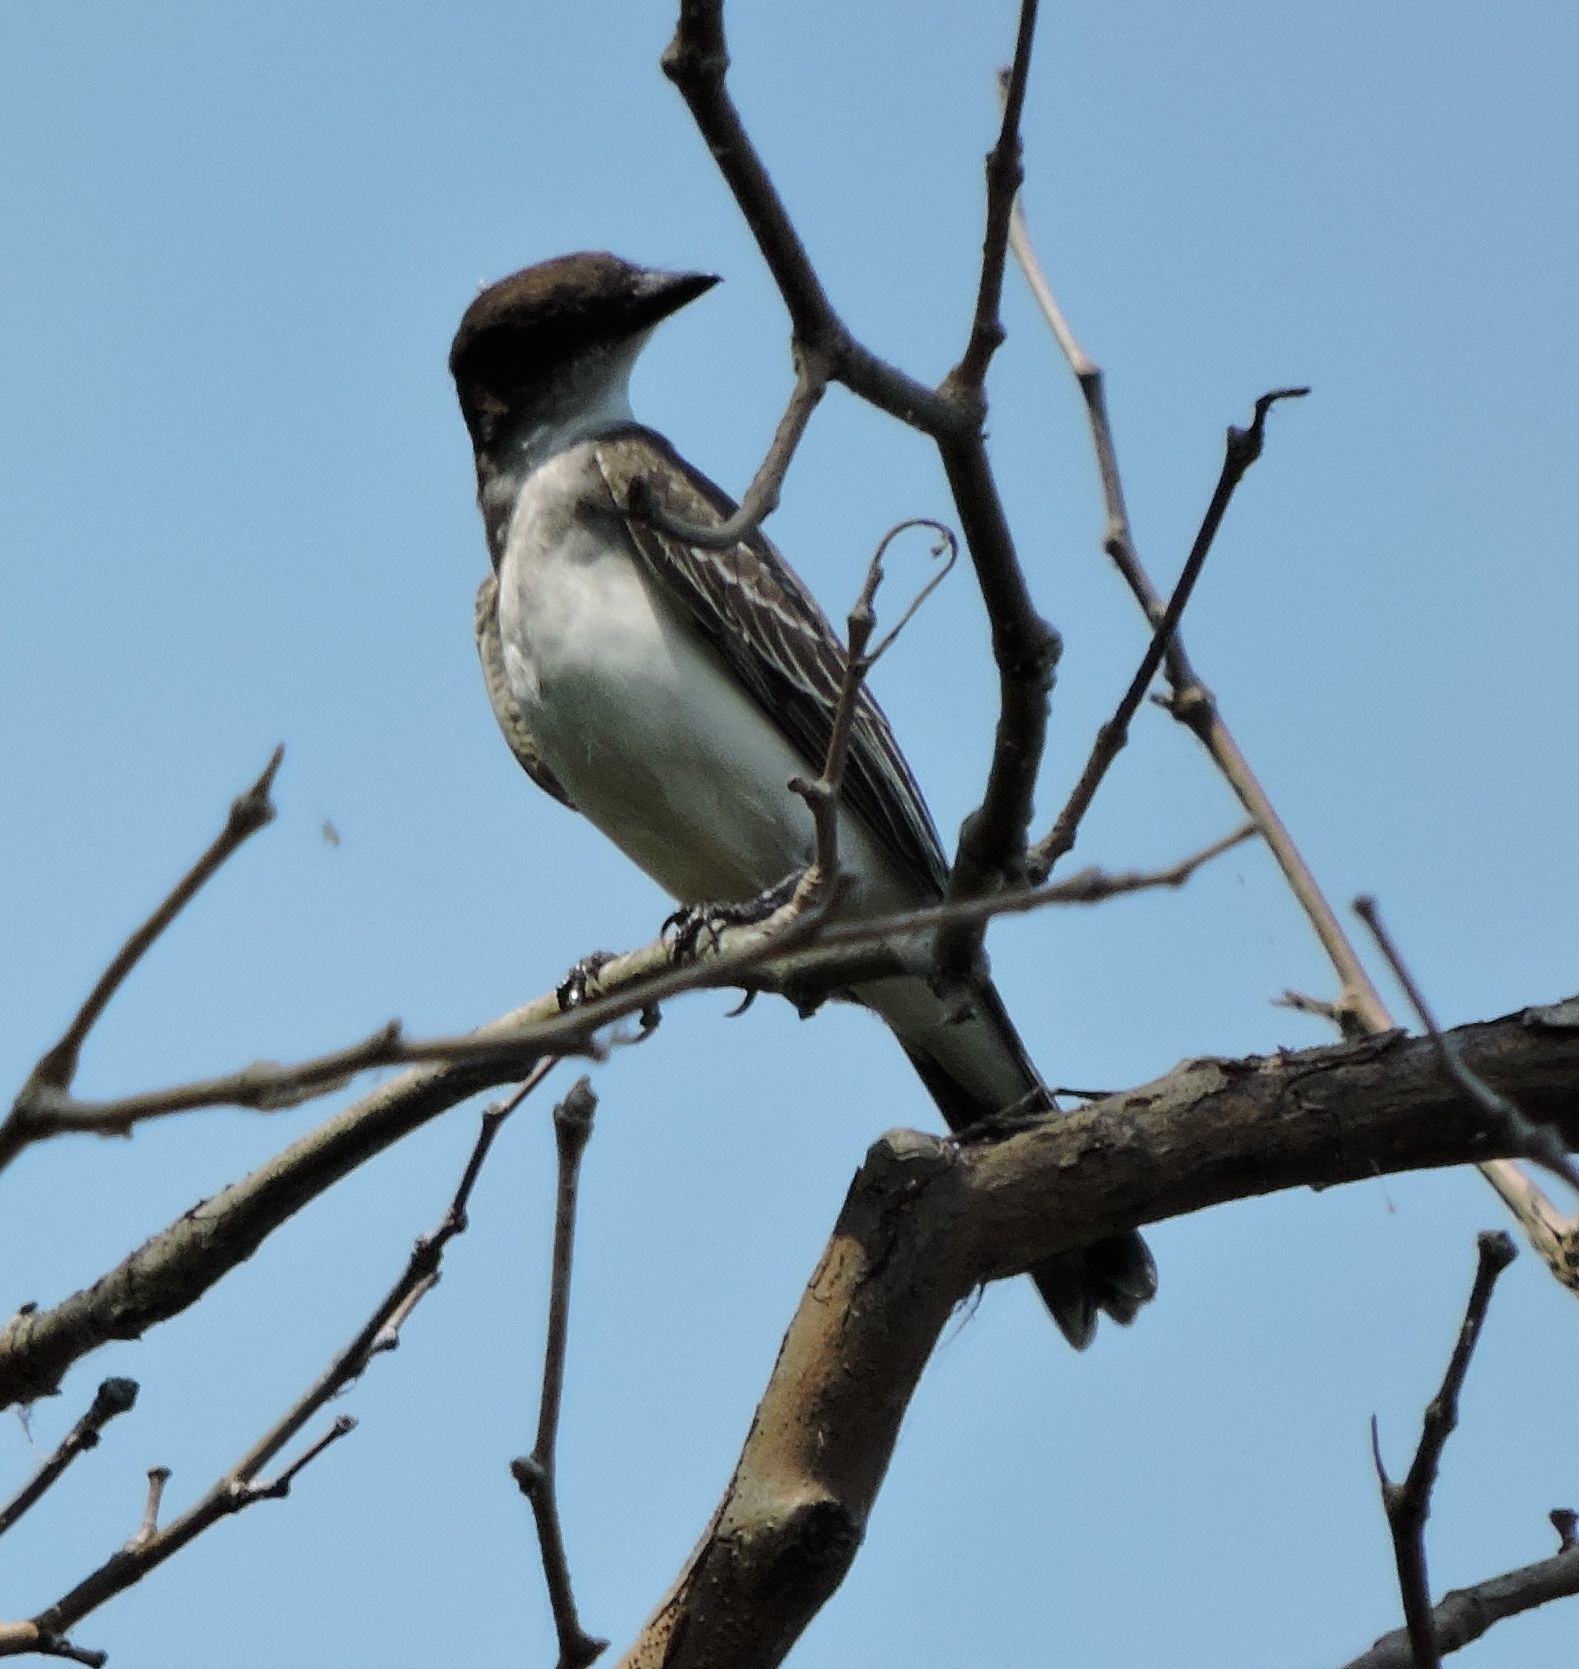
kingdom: Animalia
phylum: Chordata
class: Aves
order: Passeriformes
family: Tyrannidae
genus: Tyrannus
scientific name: Tyrannus tyrannus
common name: Eastern kingbird
